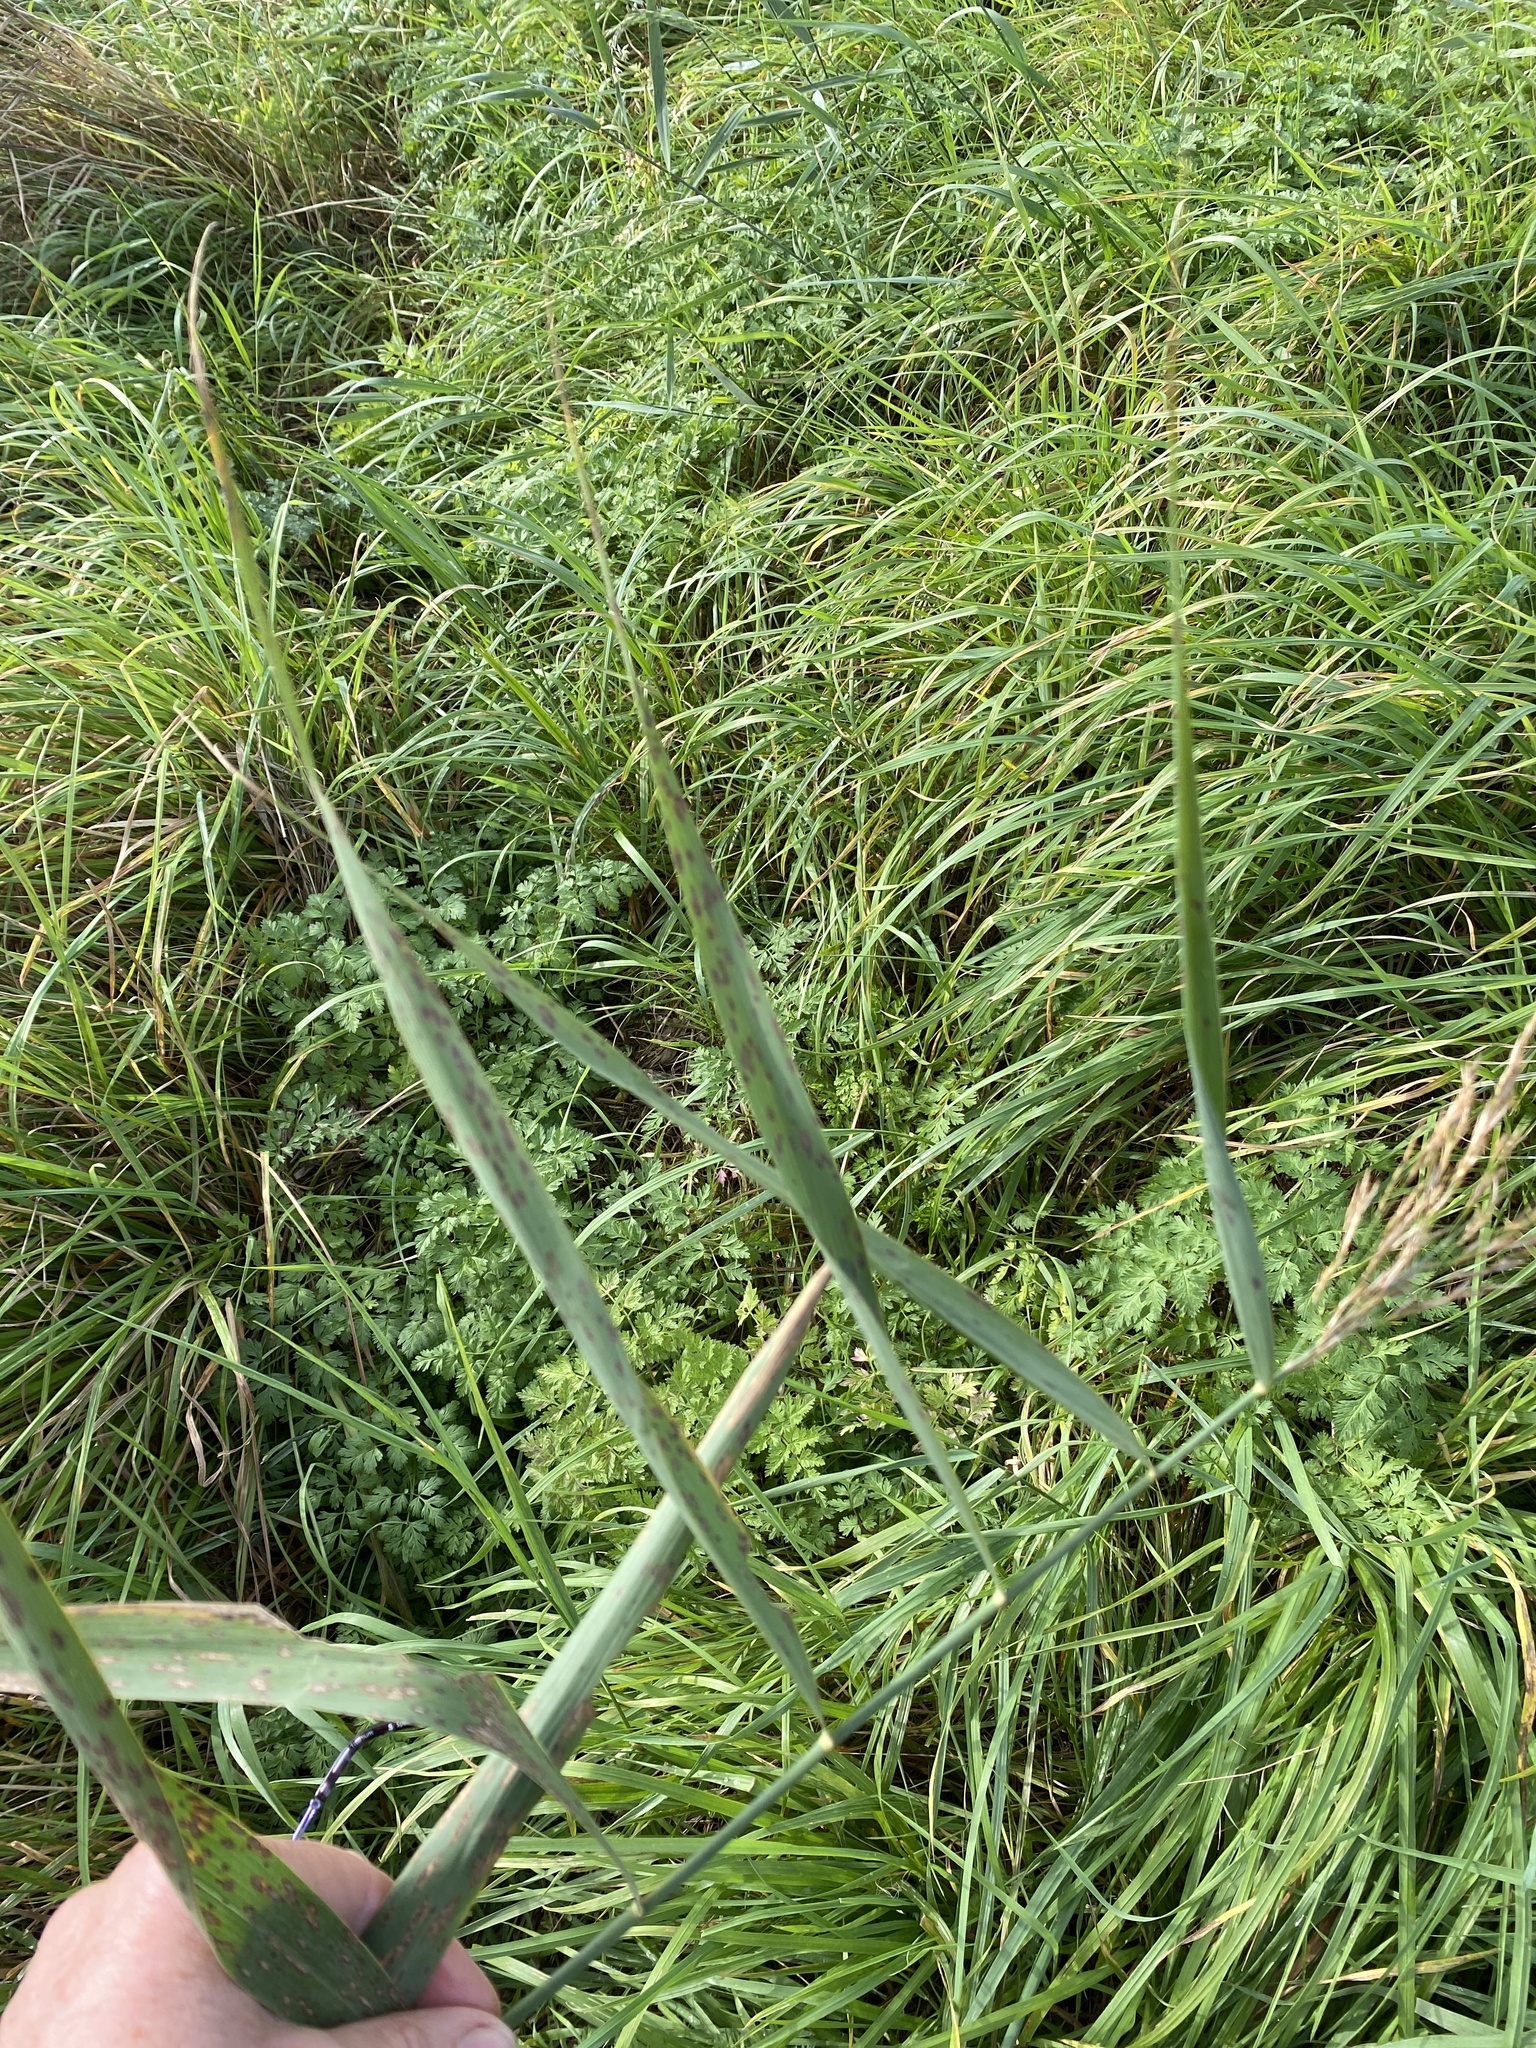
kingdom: Plantae
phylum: Tracheophyta
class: Liliopsida
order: Poales
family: Poaceae
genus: Phragmites
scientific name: Phragmites australis
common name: Common reed
